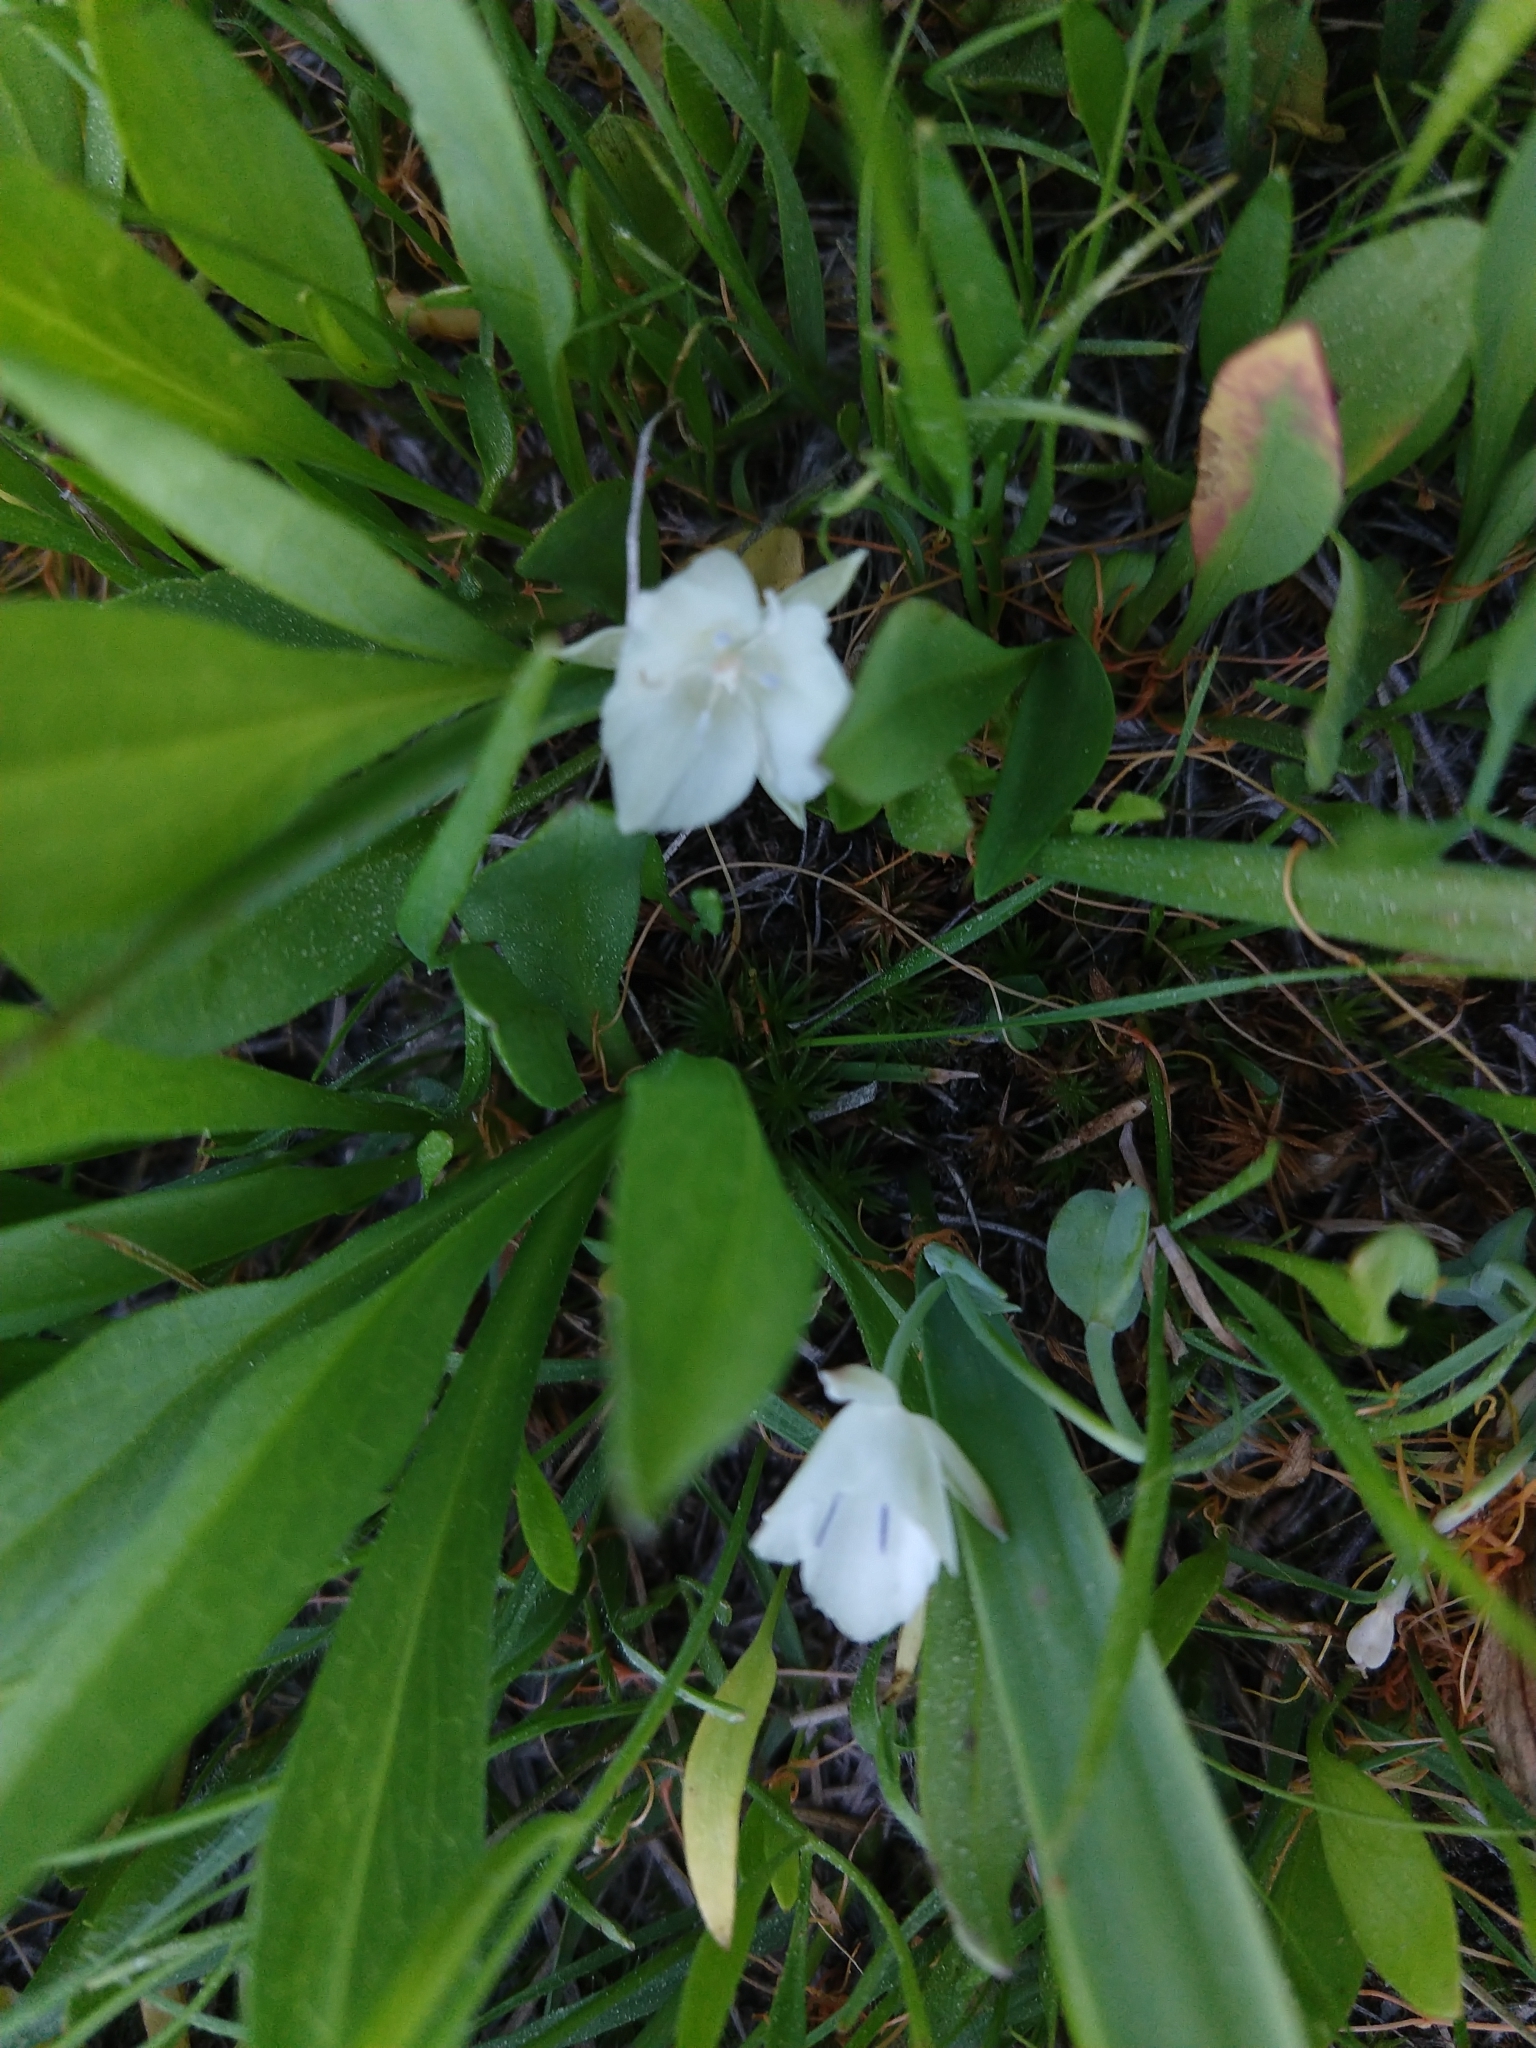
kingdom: Plantae
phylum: Tracheophyta
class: Liliopsida
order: Liliales
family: Liliaceae
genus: Calochortus
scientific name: Calochortus minimus
